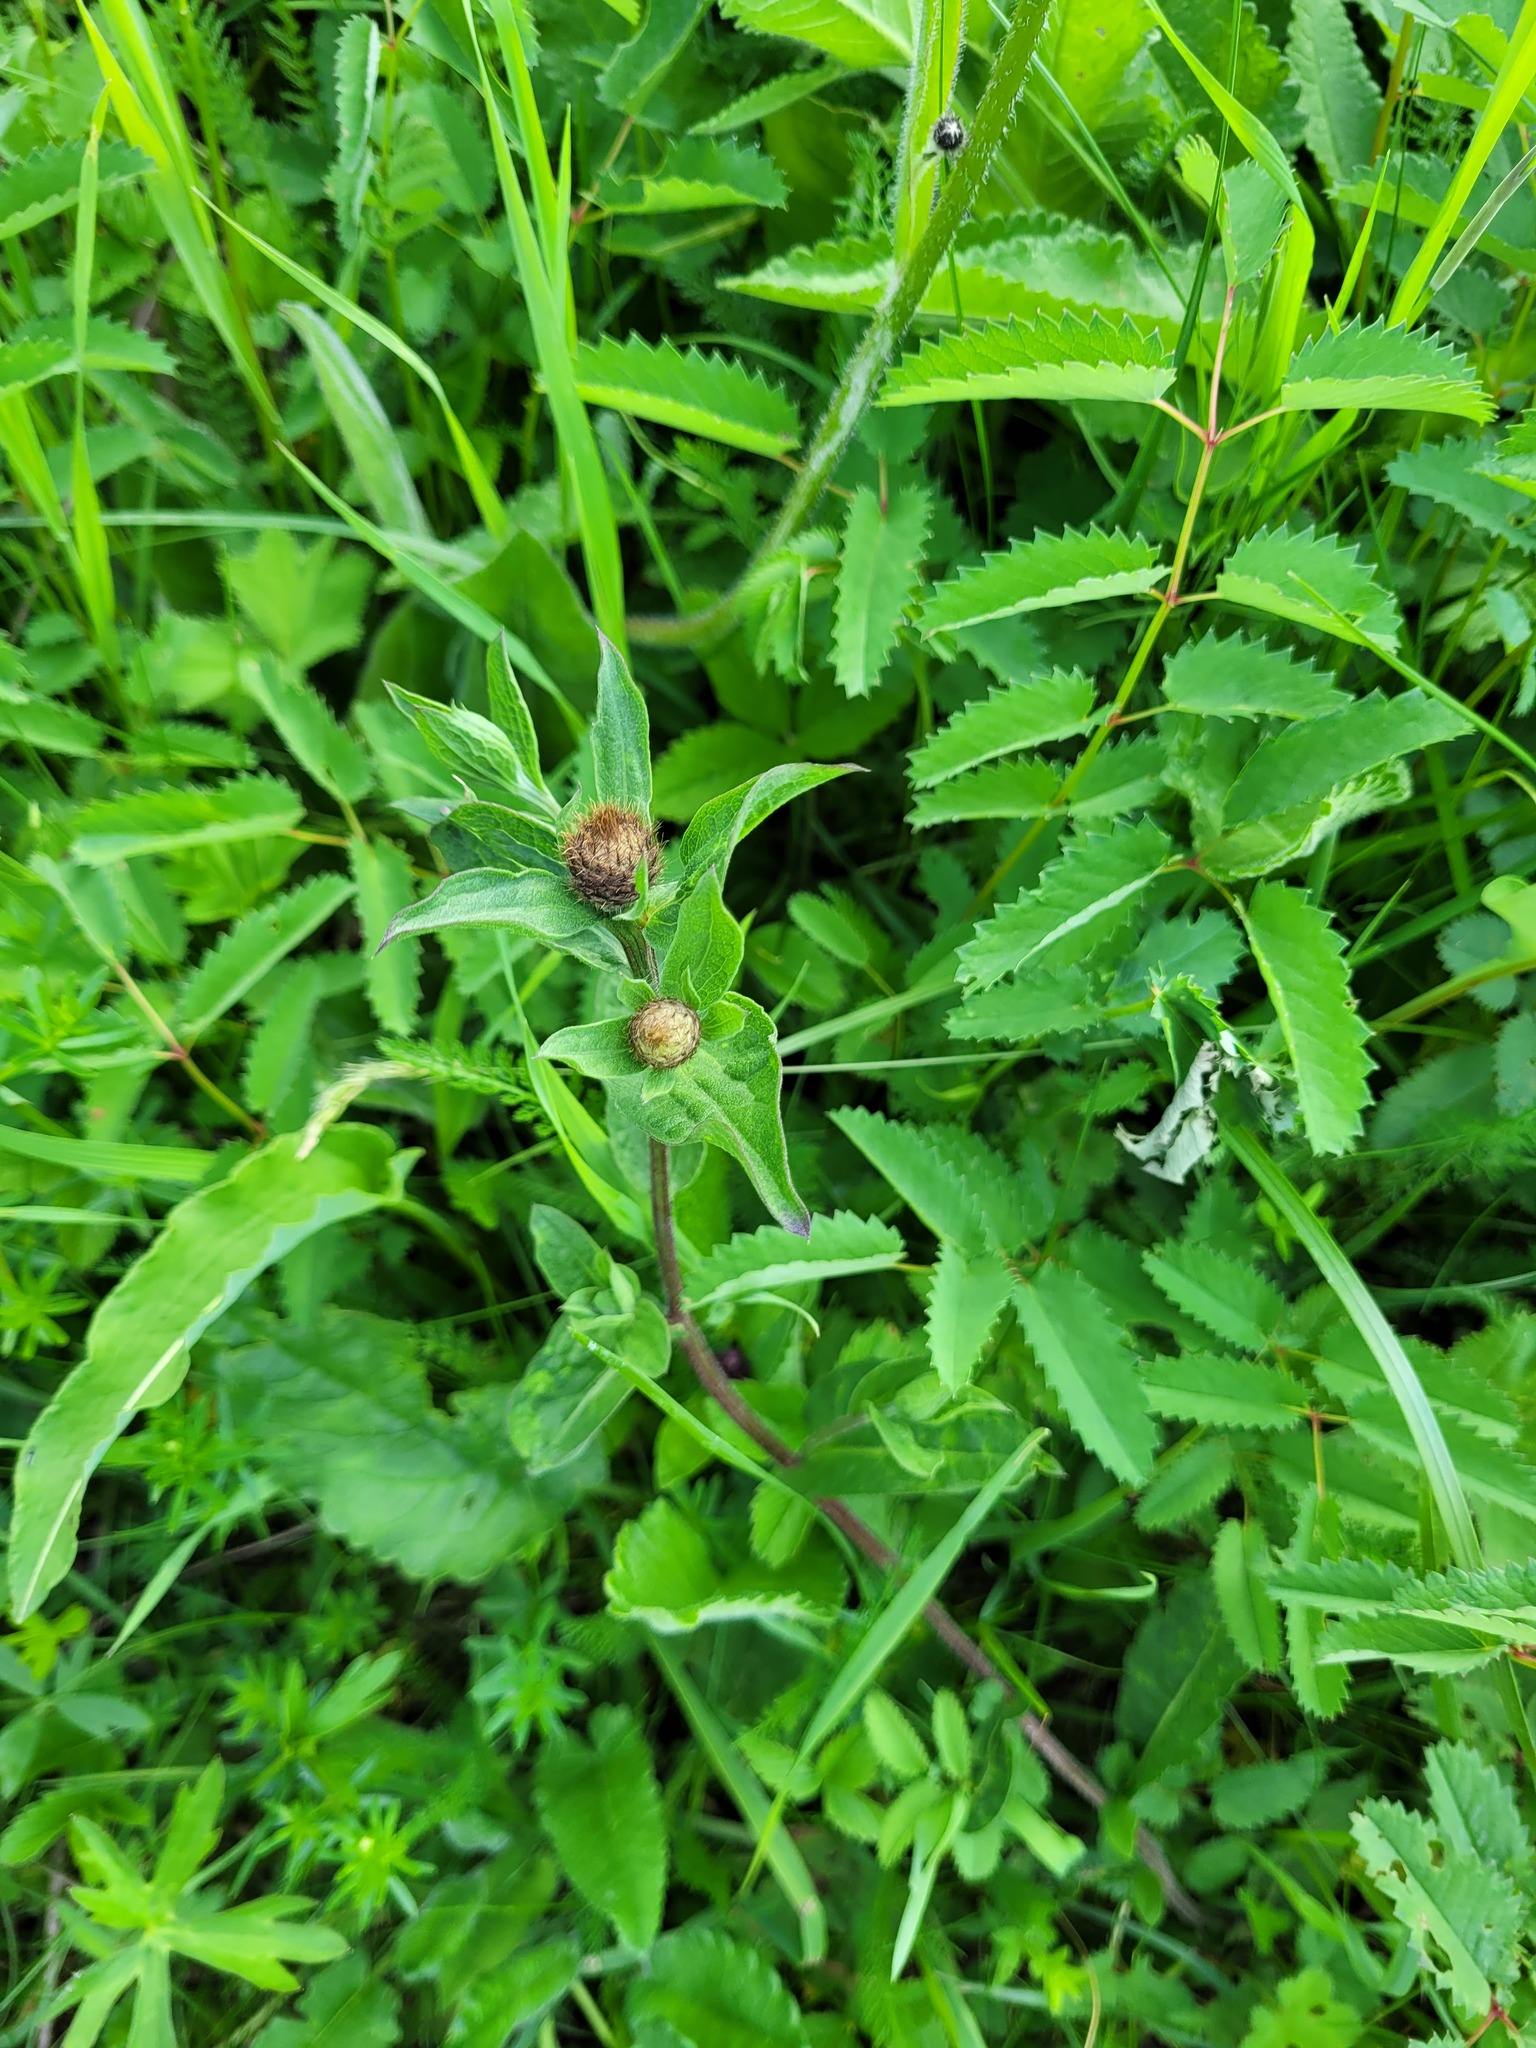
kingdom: Plantae
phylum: Tracheophyta
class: Magnoliopsida
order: Asterales
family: Asteraceae
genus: Centaurea
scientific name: Centaurea pseudophrygia
